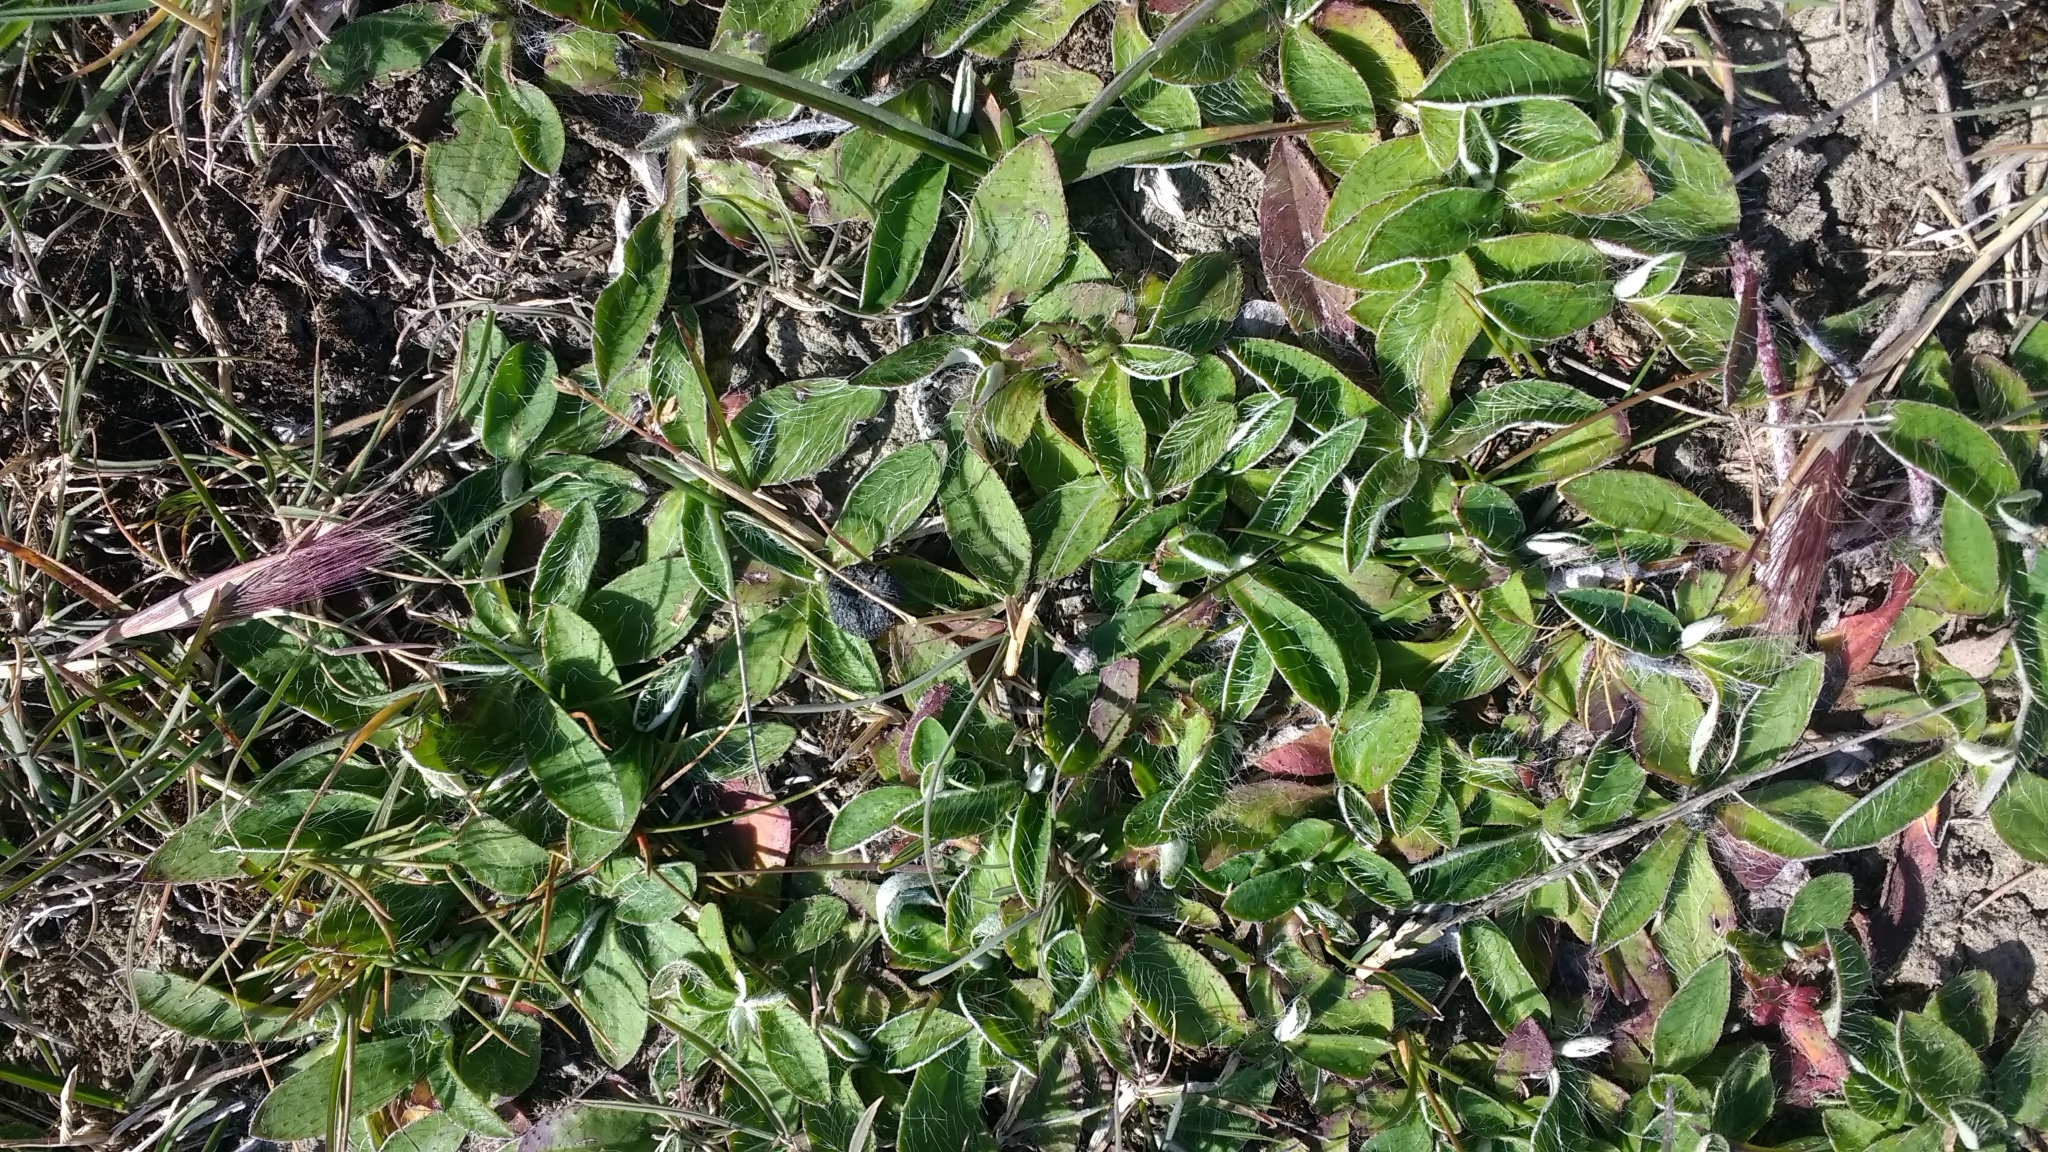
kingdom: Plantae
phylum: Tracheophyta
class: Magnoliopsida
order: Asterales
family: Asteraceae
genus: Pilosella
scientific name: Pilosella officinarum
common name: Mouse-ear hawkweed
